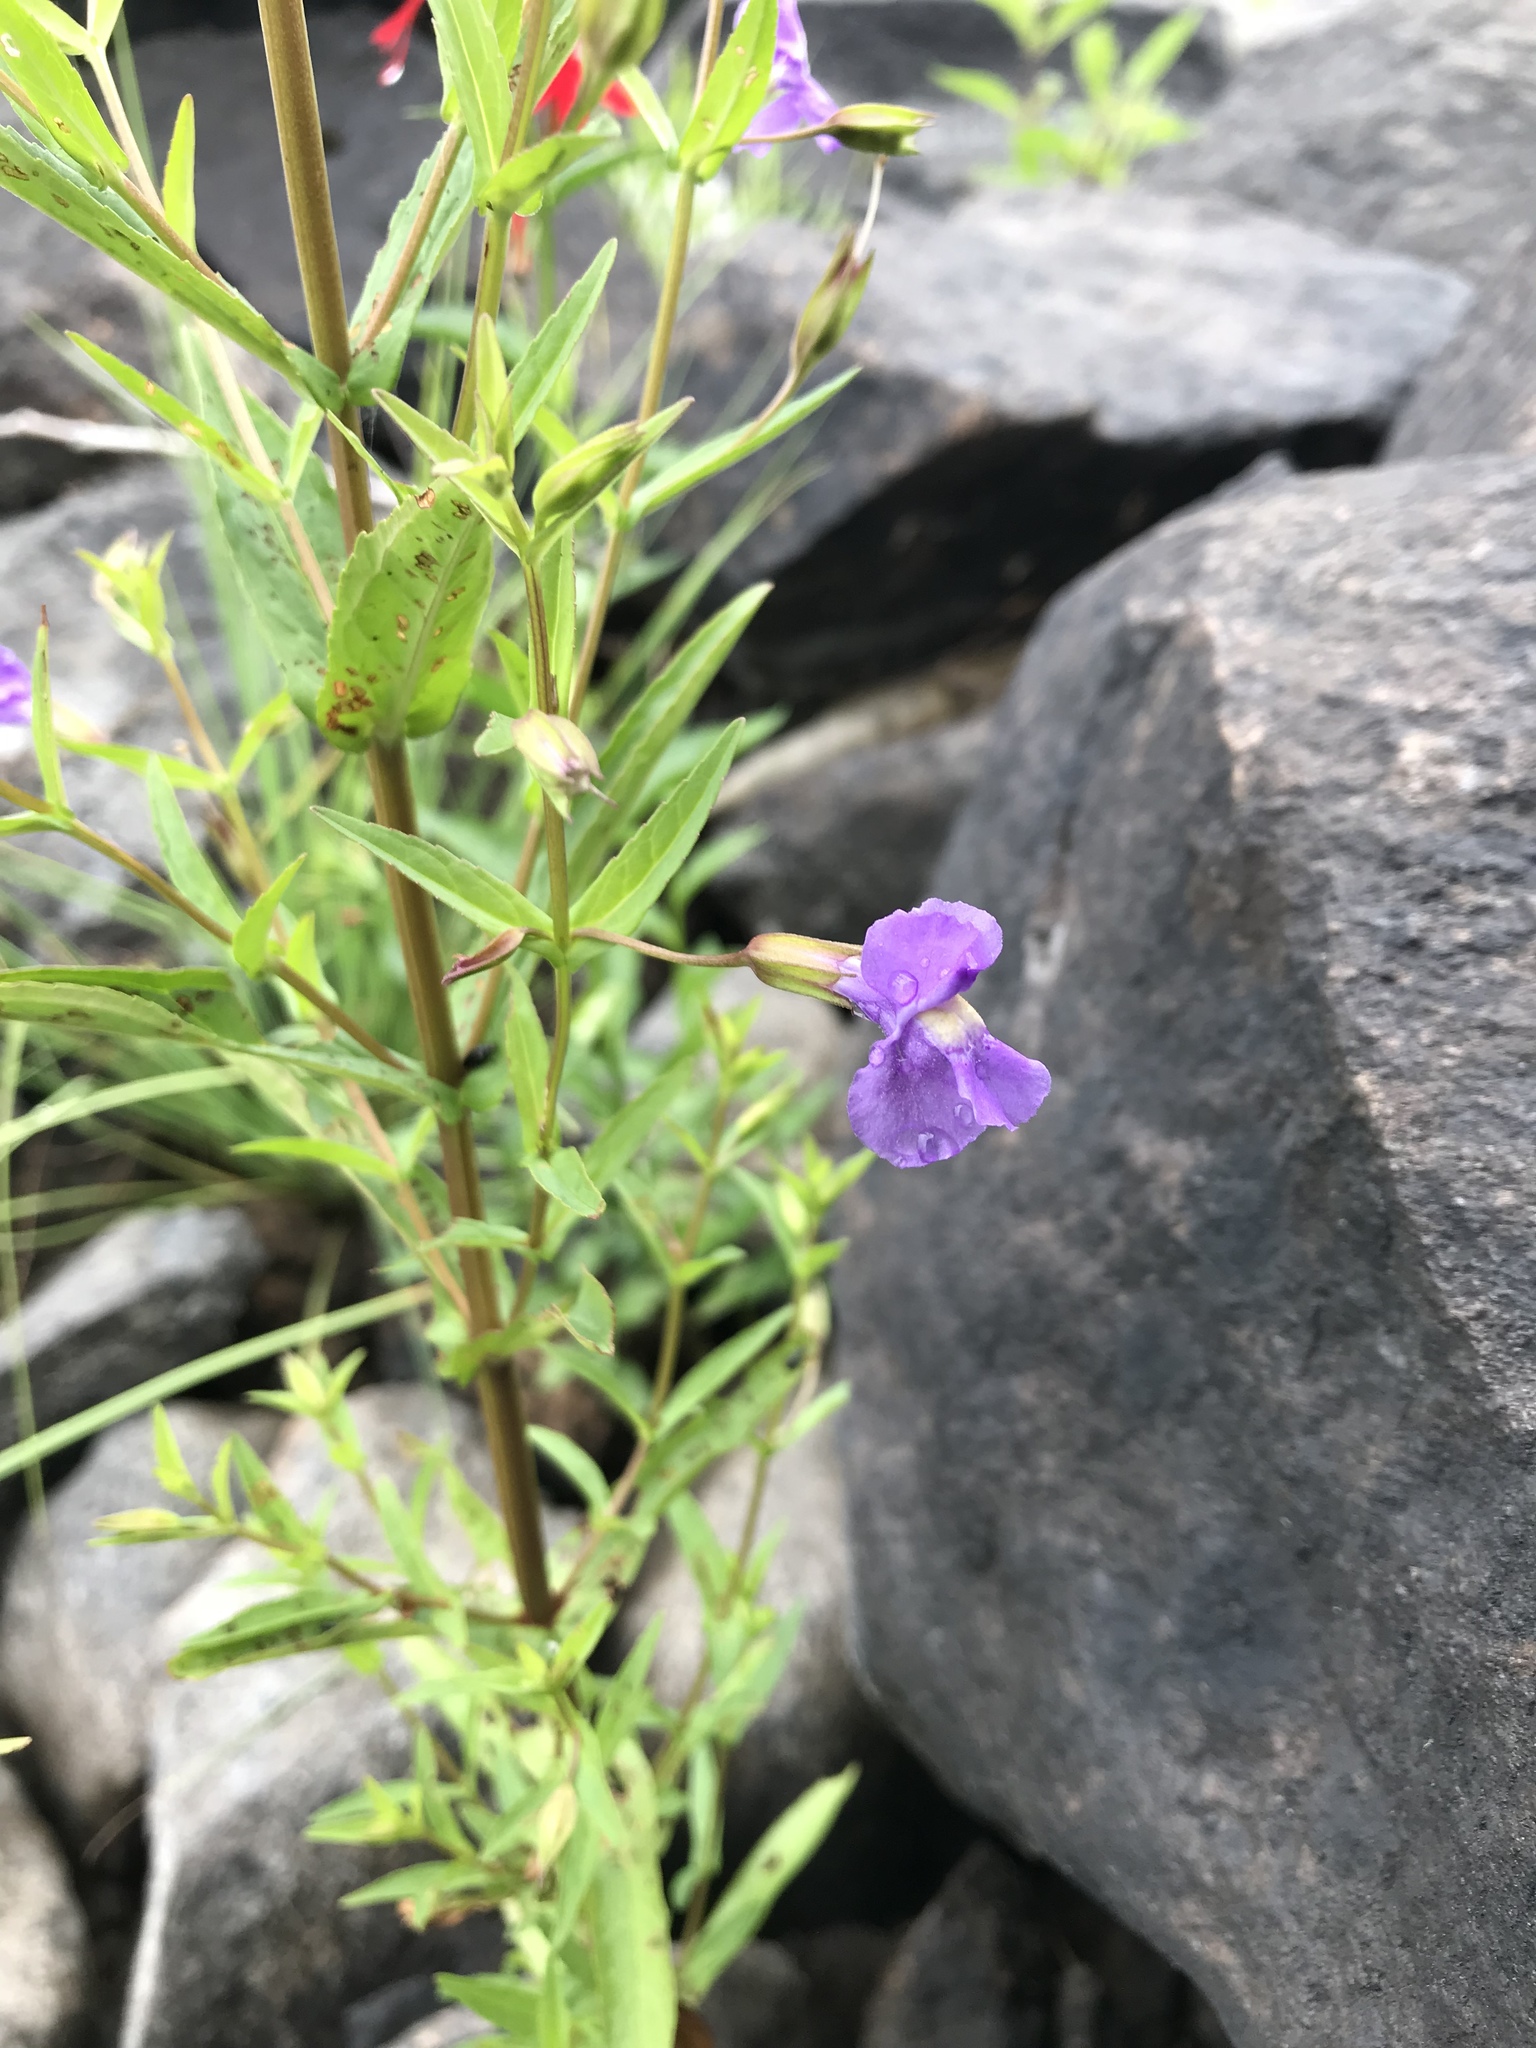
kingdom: Plantae
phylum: Tracheophyta
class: Magnoliopsida
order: Lamiales
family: Phrymaceae
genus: Mimulus
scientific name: Mimulus ringens
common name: Allegheny monkeyflower
